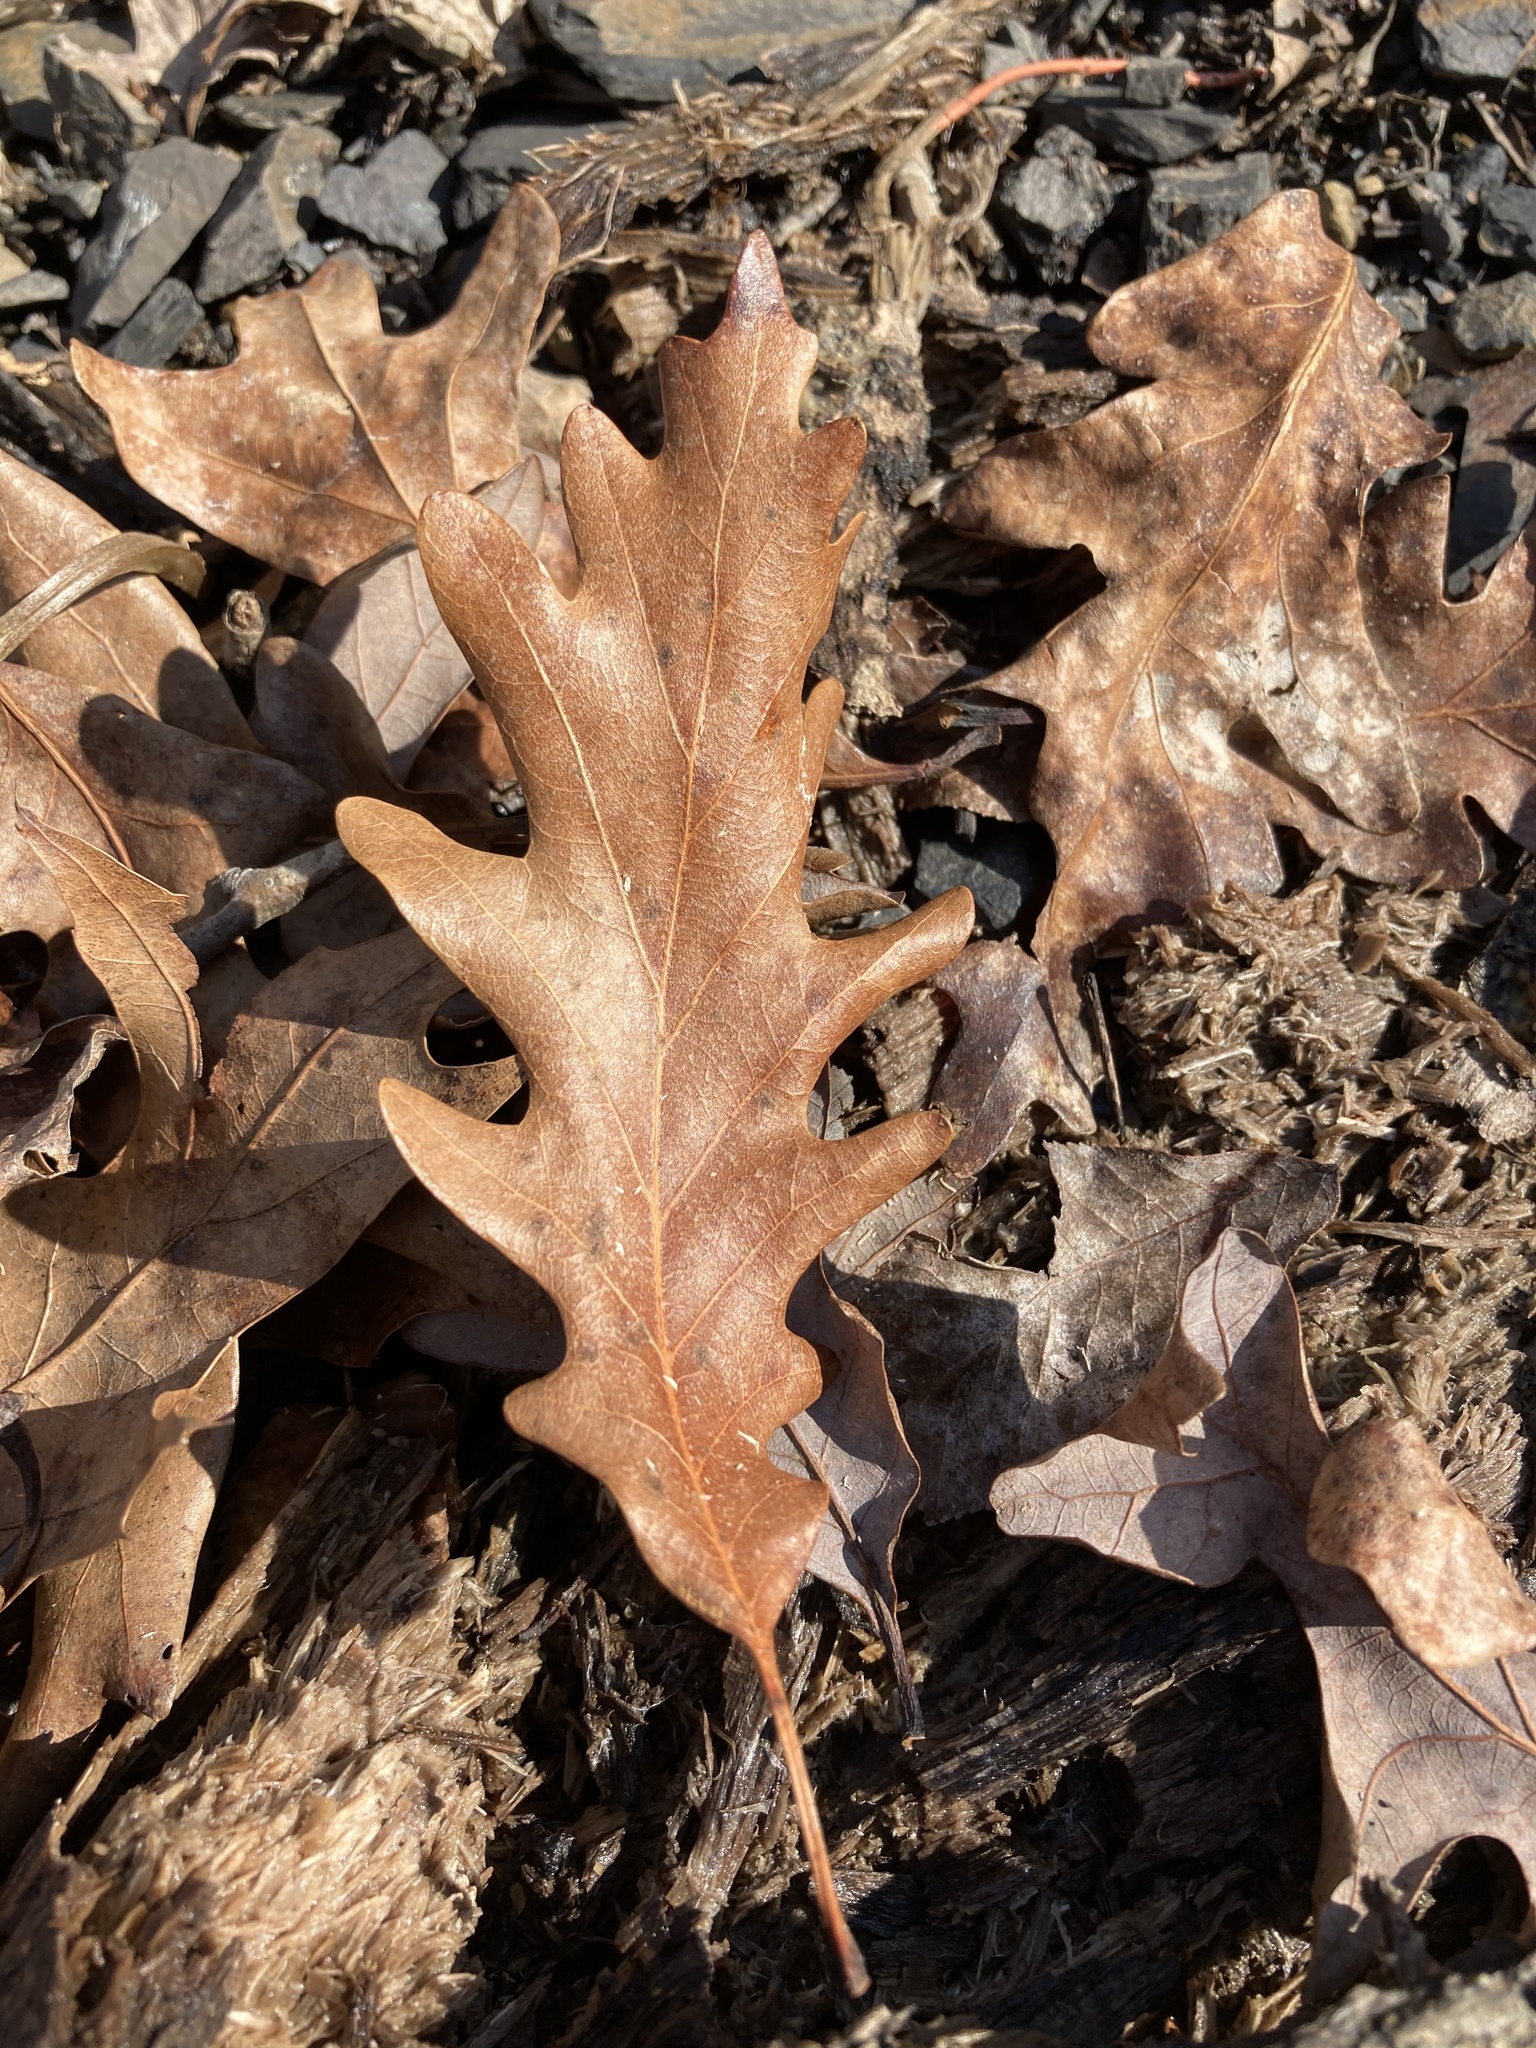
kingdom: Plantae
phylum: Tracheophyta
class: Magnoliopsida
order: Fagales
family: Fagaceae
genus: Quercus
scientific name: Quercus alba
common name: White oak
